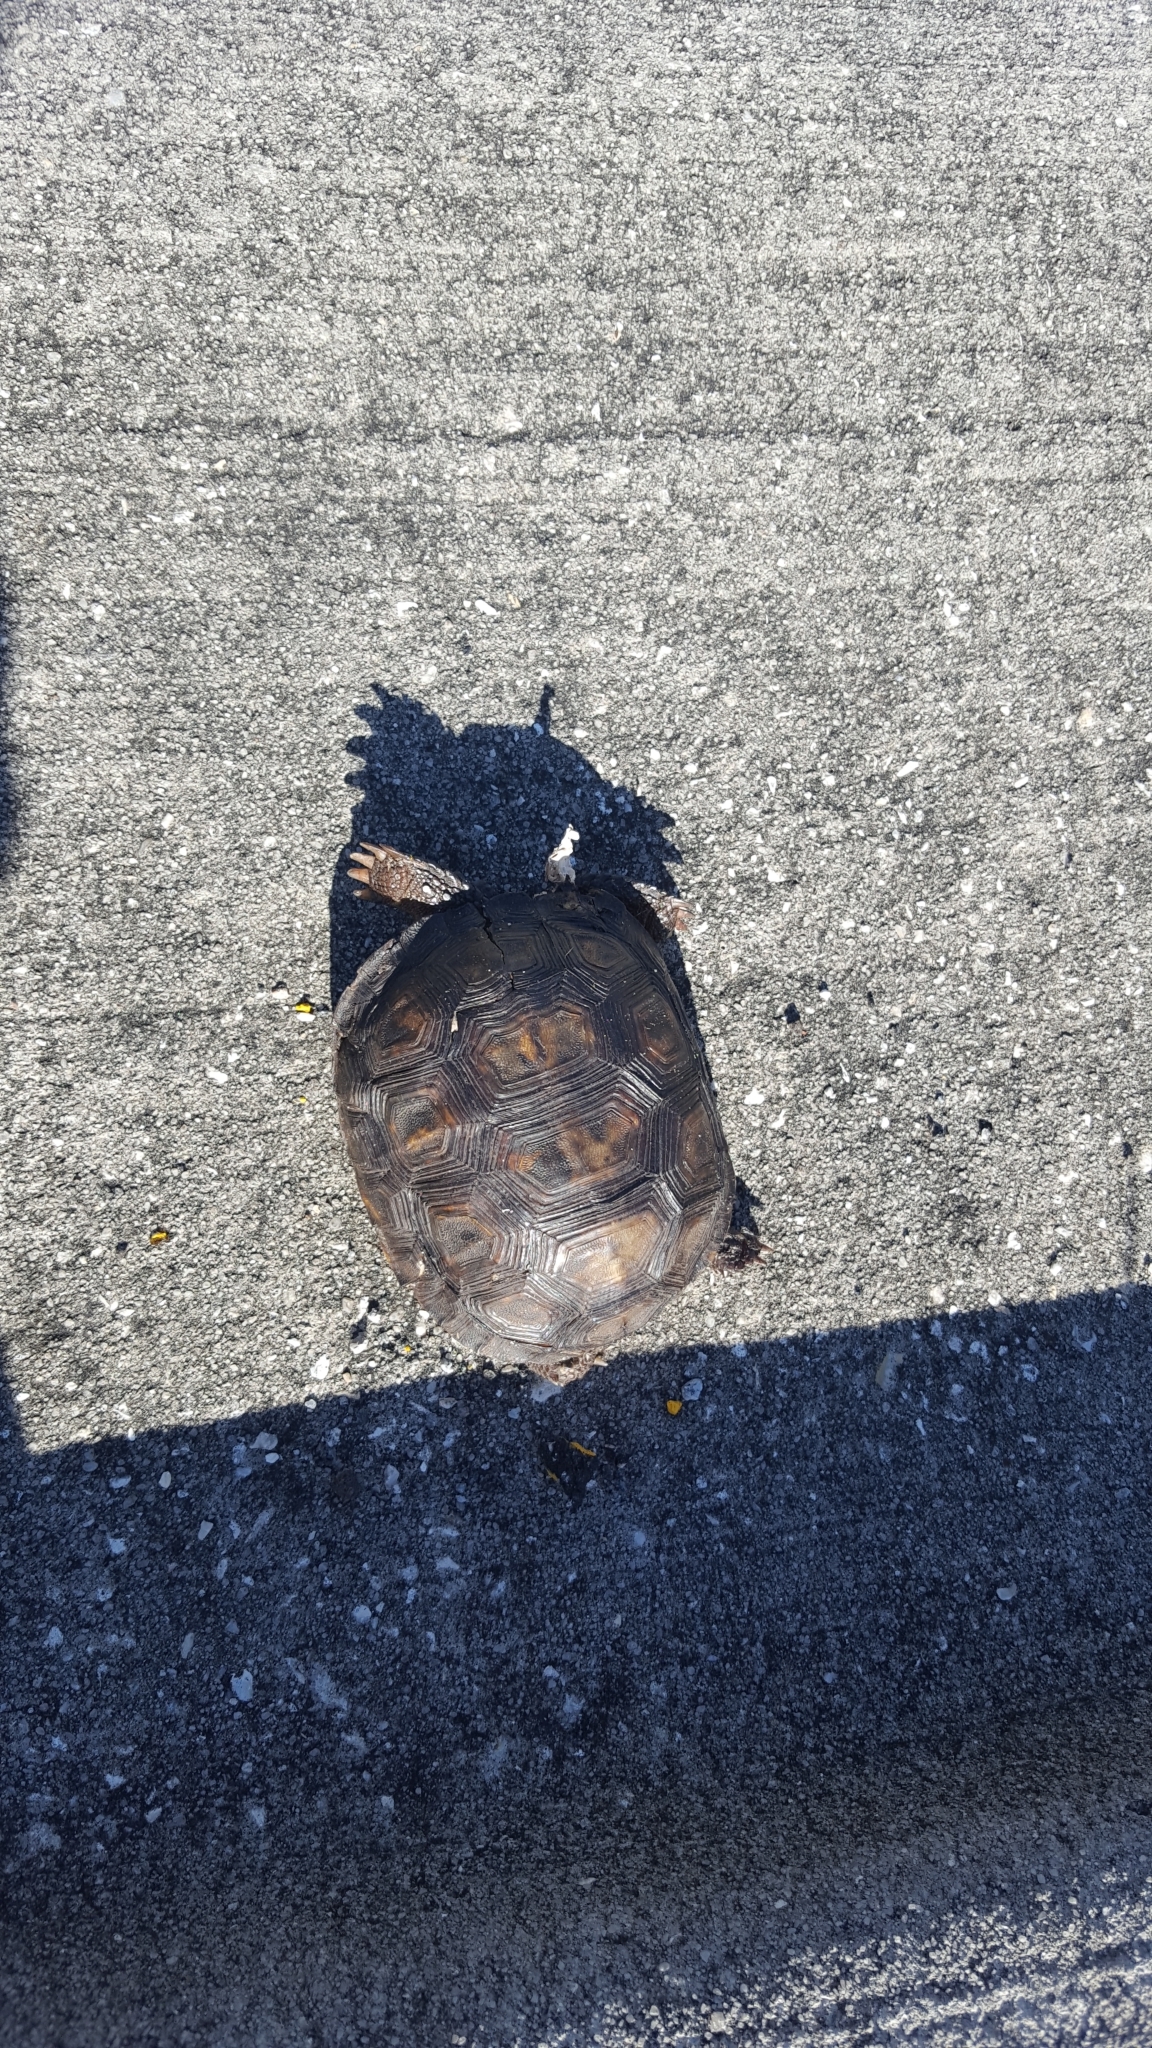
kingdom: Animalia
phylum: Chordata
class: Testudines
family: Testudinidae
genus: Gopherus
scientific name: Gopherus polyphemus
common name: Florida gopher tortoise
